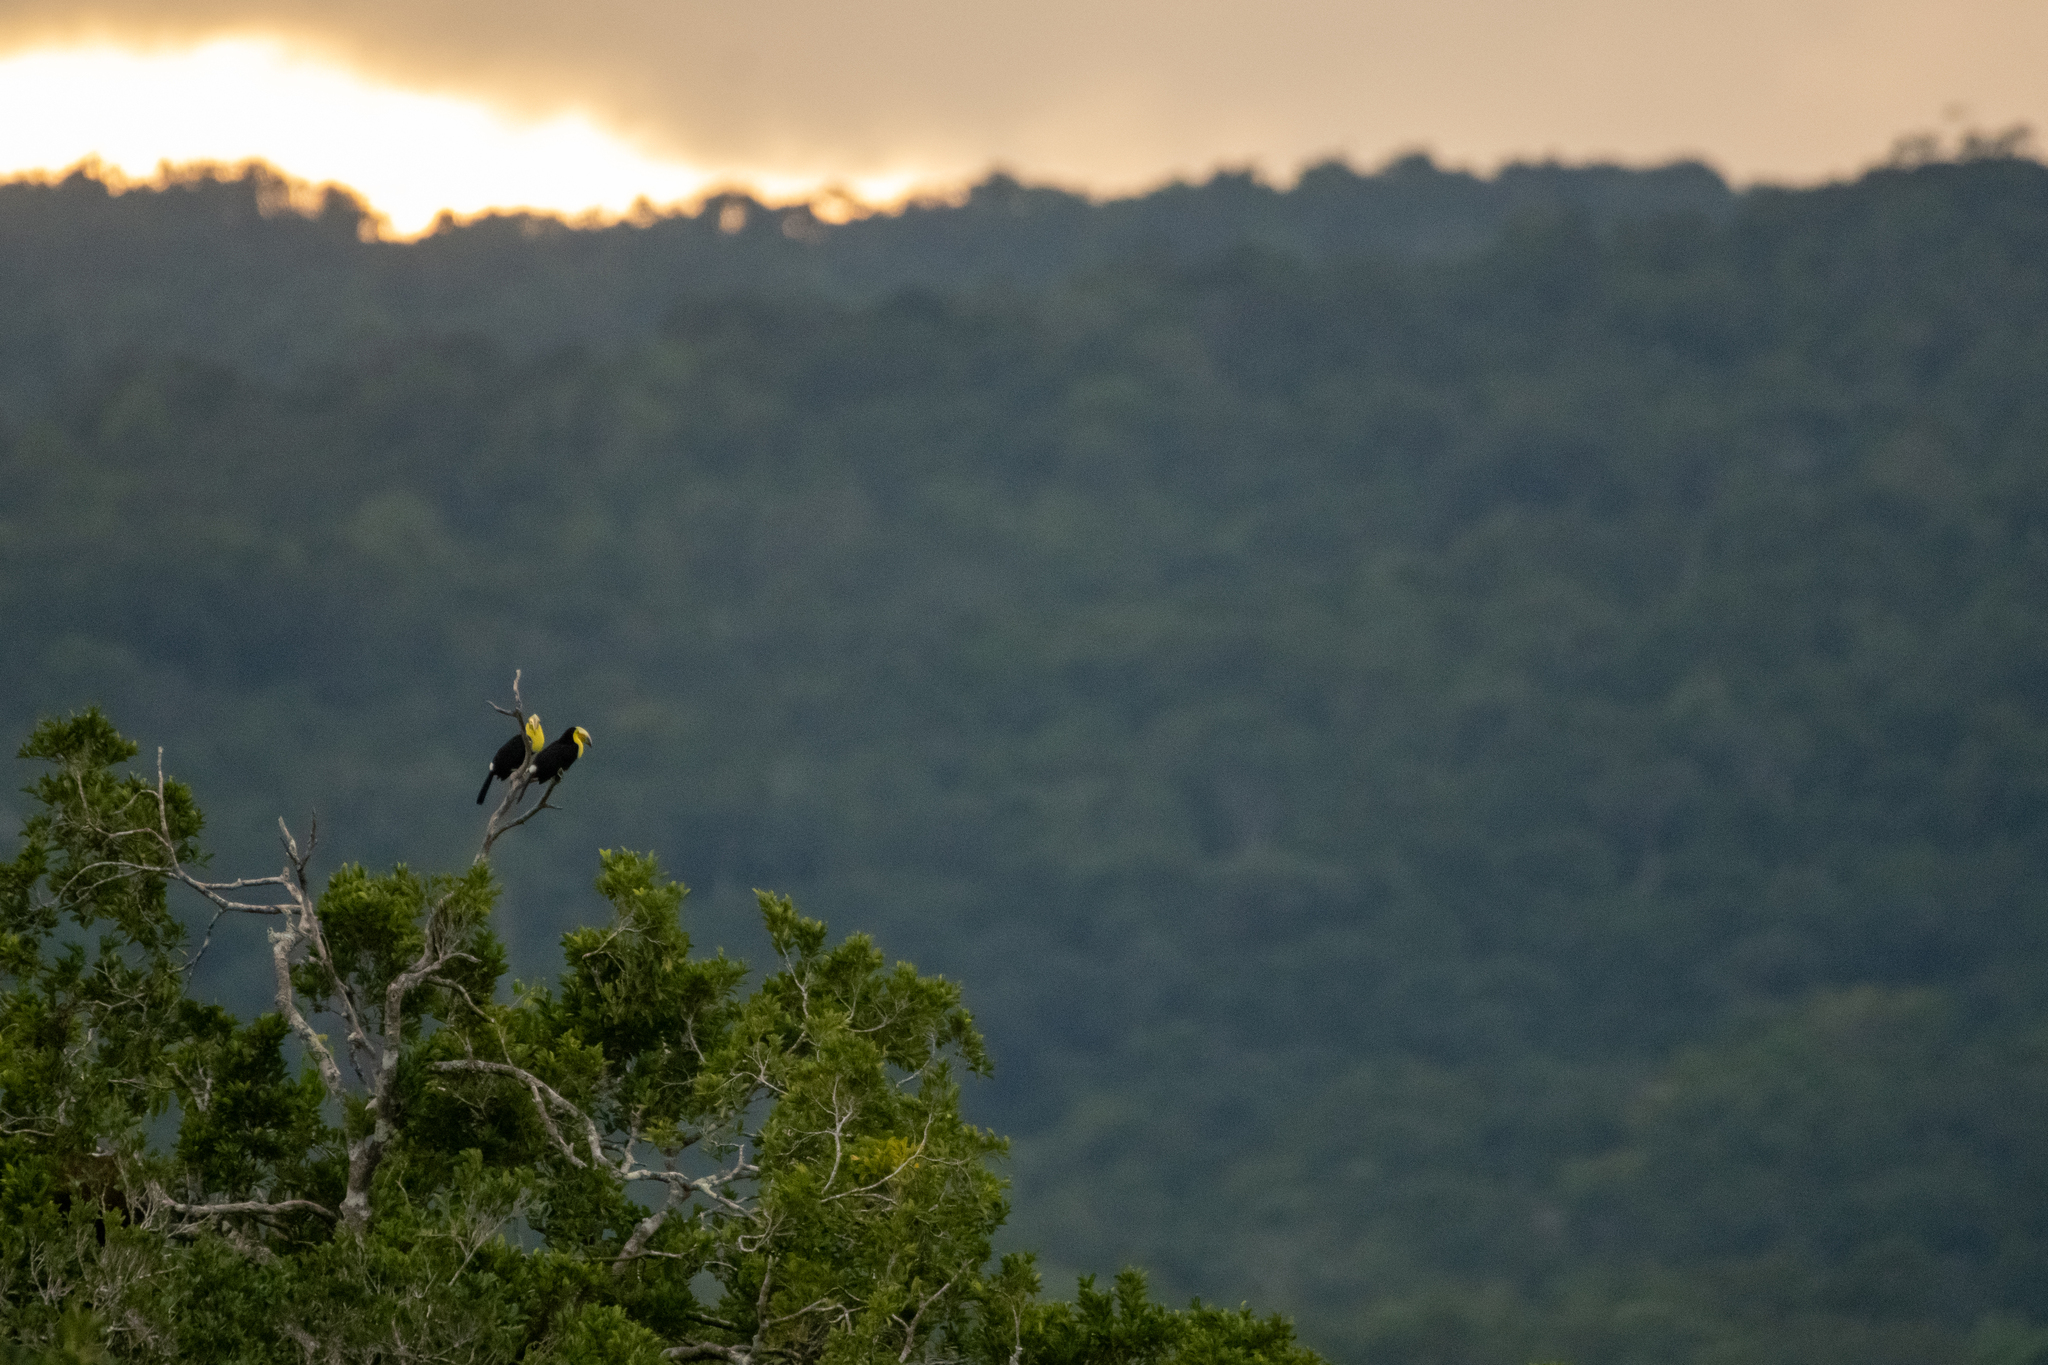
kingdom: Animalia
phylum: Chordata
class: Aves
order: Piciformes
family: Ramphastidae
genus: Ramphastos
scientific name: Ramphastos sulfuratus
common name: Keel-billed toucan
